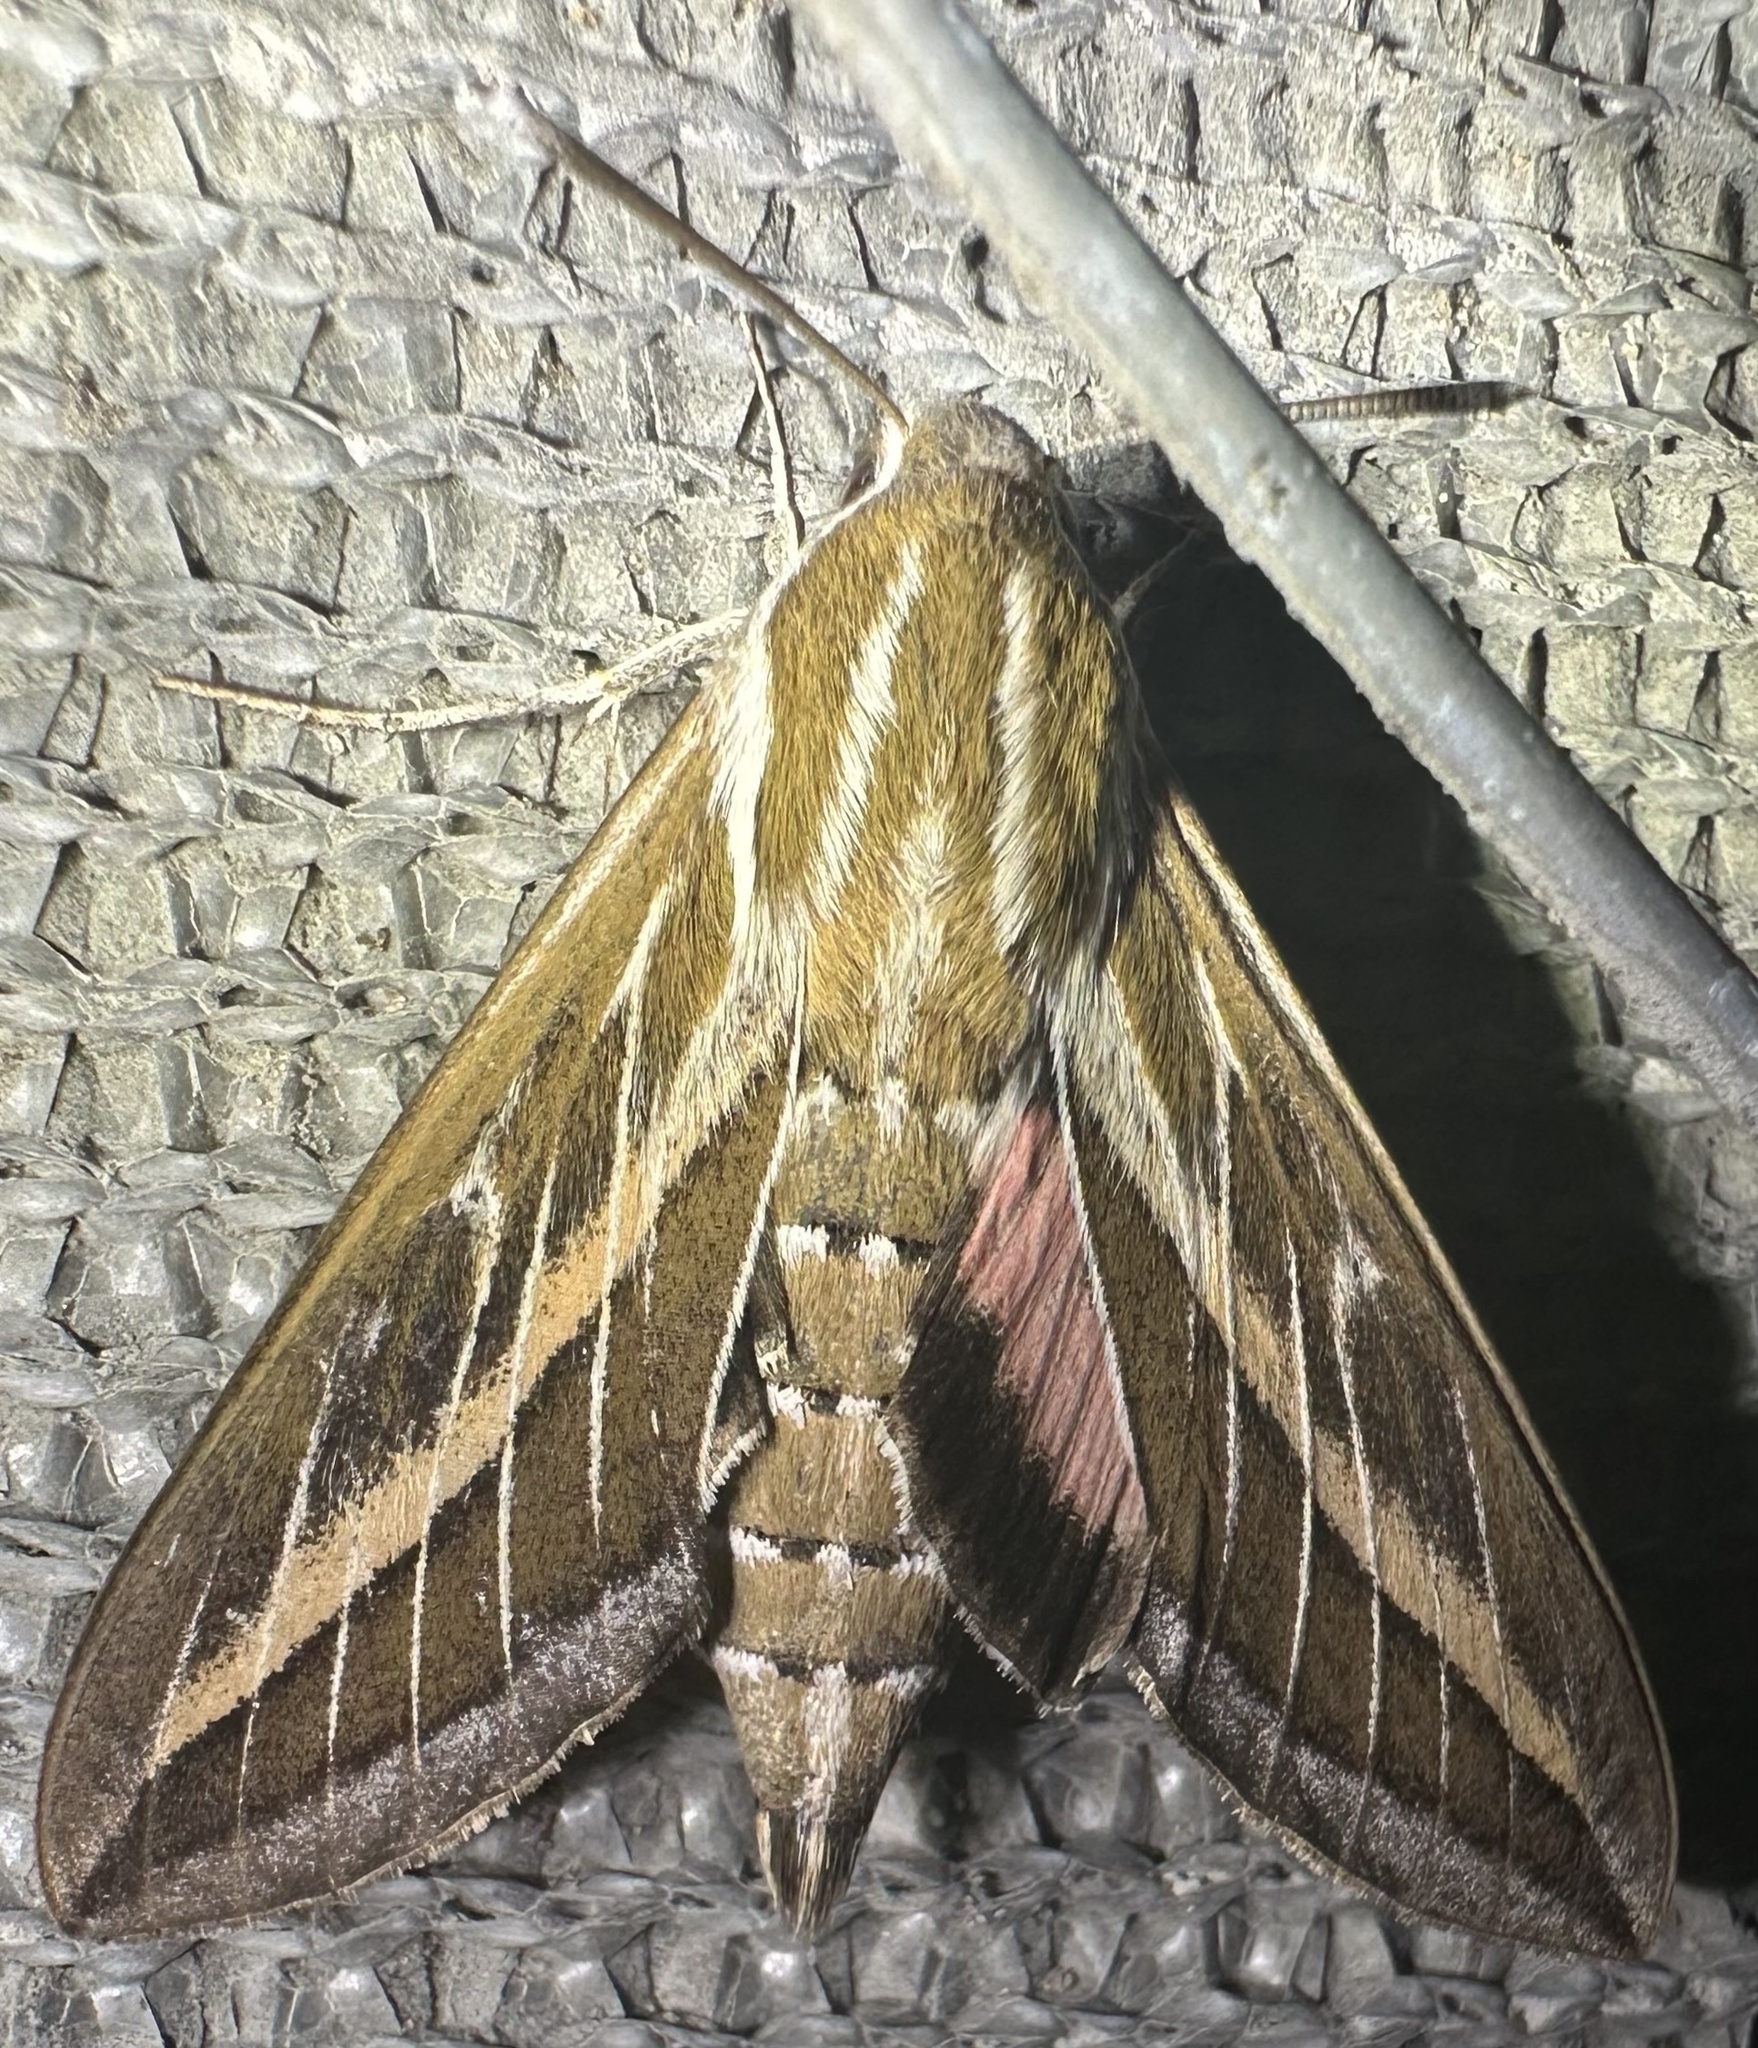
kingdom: Animalia
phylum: Arthropoda
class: Insecta
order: Lepidoptera
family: Sphingidae
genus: Hyles
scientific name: Hyles livornica
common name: Striped hawk-moth
